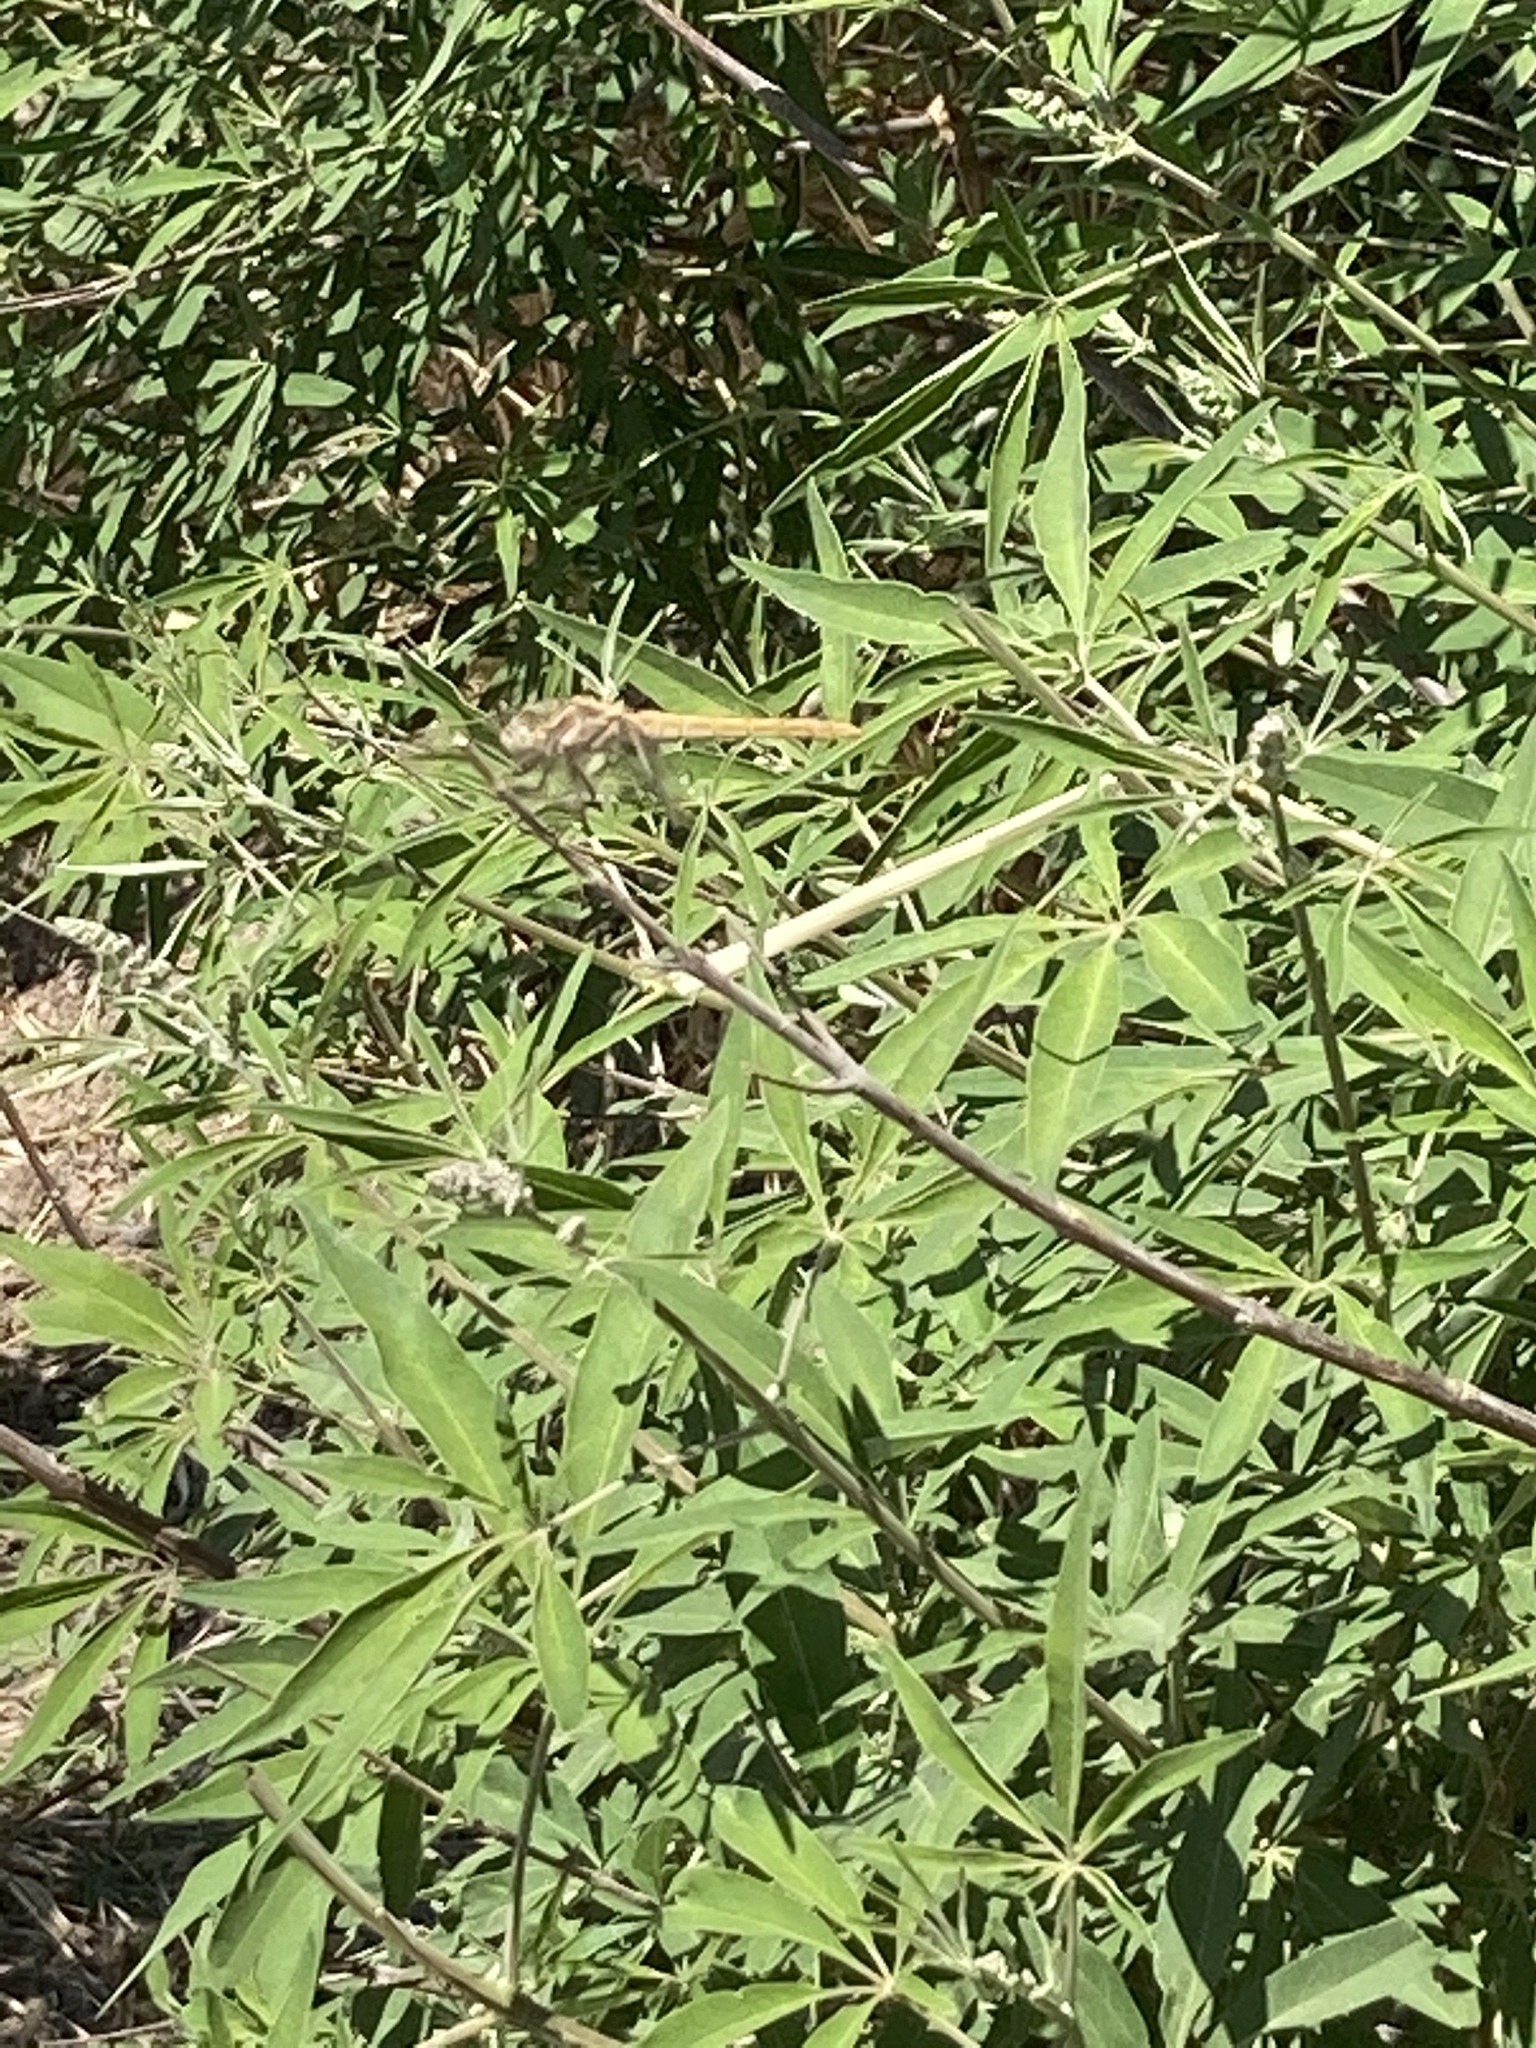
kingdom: Animalia
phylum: Arthropoda
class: Insecta
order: Odonata
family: Libellulidae
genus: Orthetrum
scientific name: Orthetrum brunneum
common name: Southern skimmer
